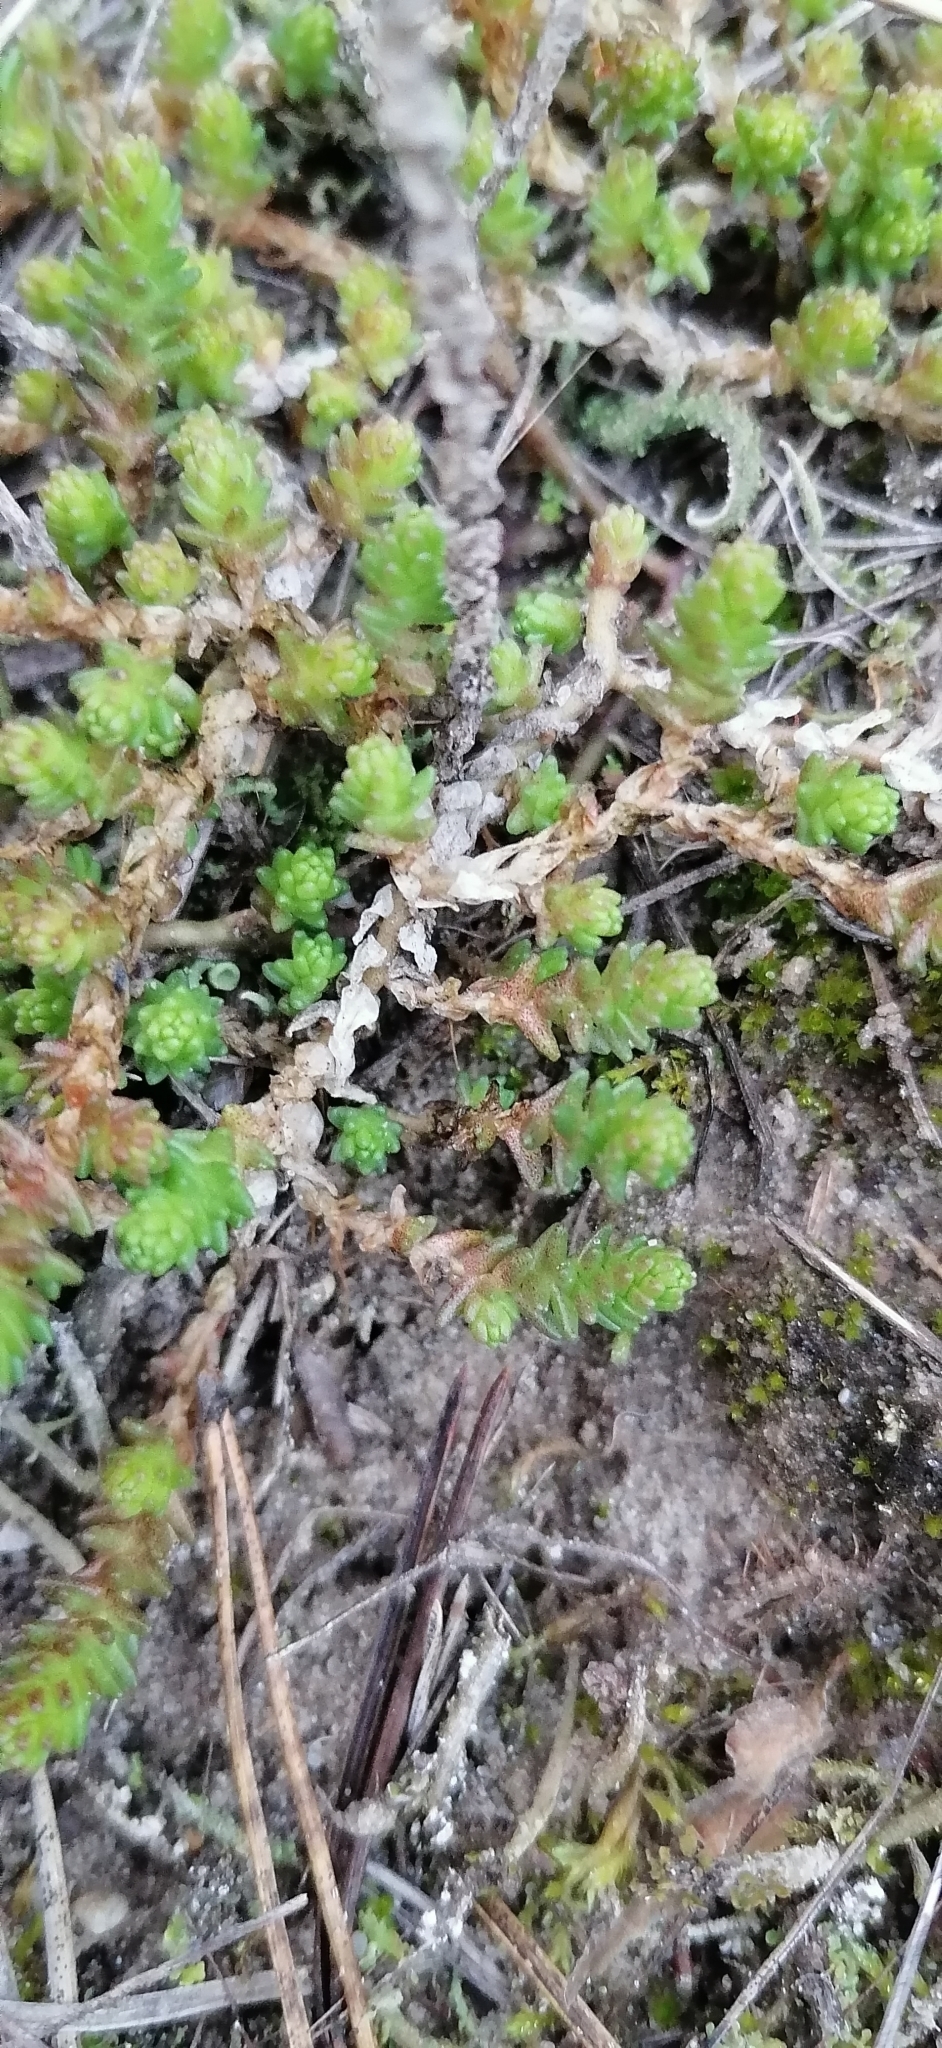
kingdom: Plantae
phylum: Tracheophyta
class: Magnoliopsida
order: Saxifragales
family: Crassulaceae
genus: Sedum
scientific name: Sedum acre
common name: Biting stonecrop
